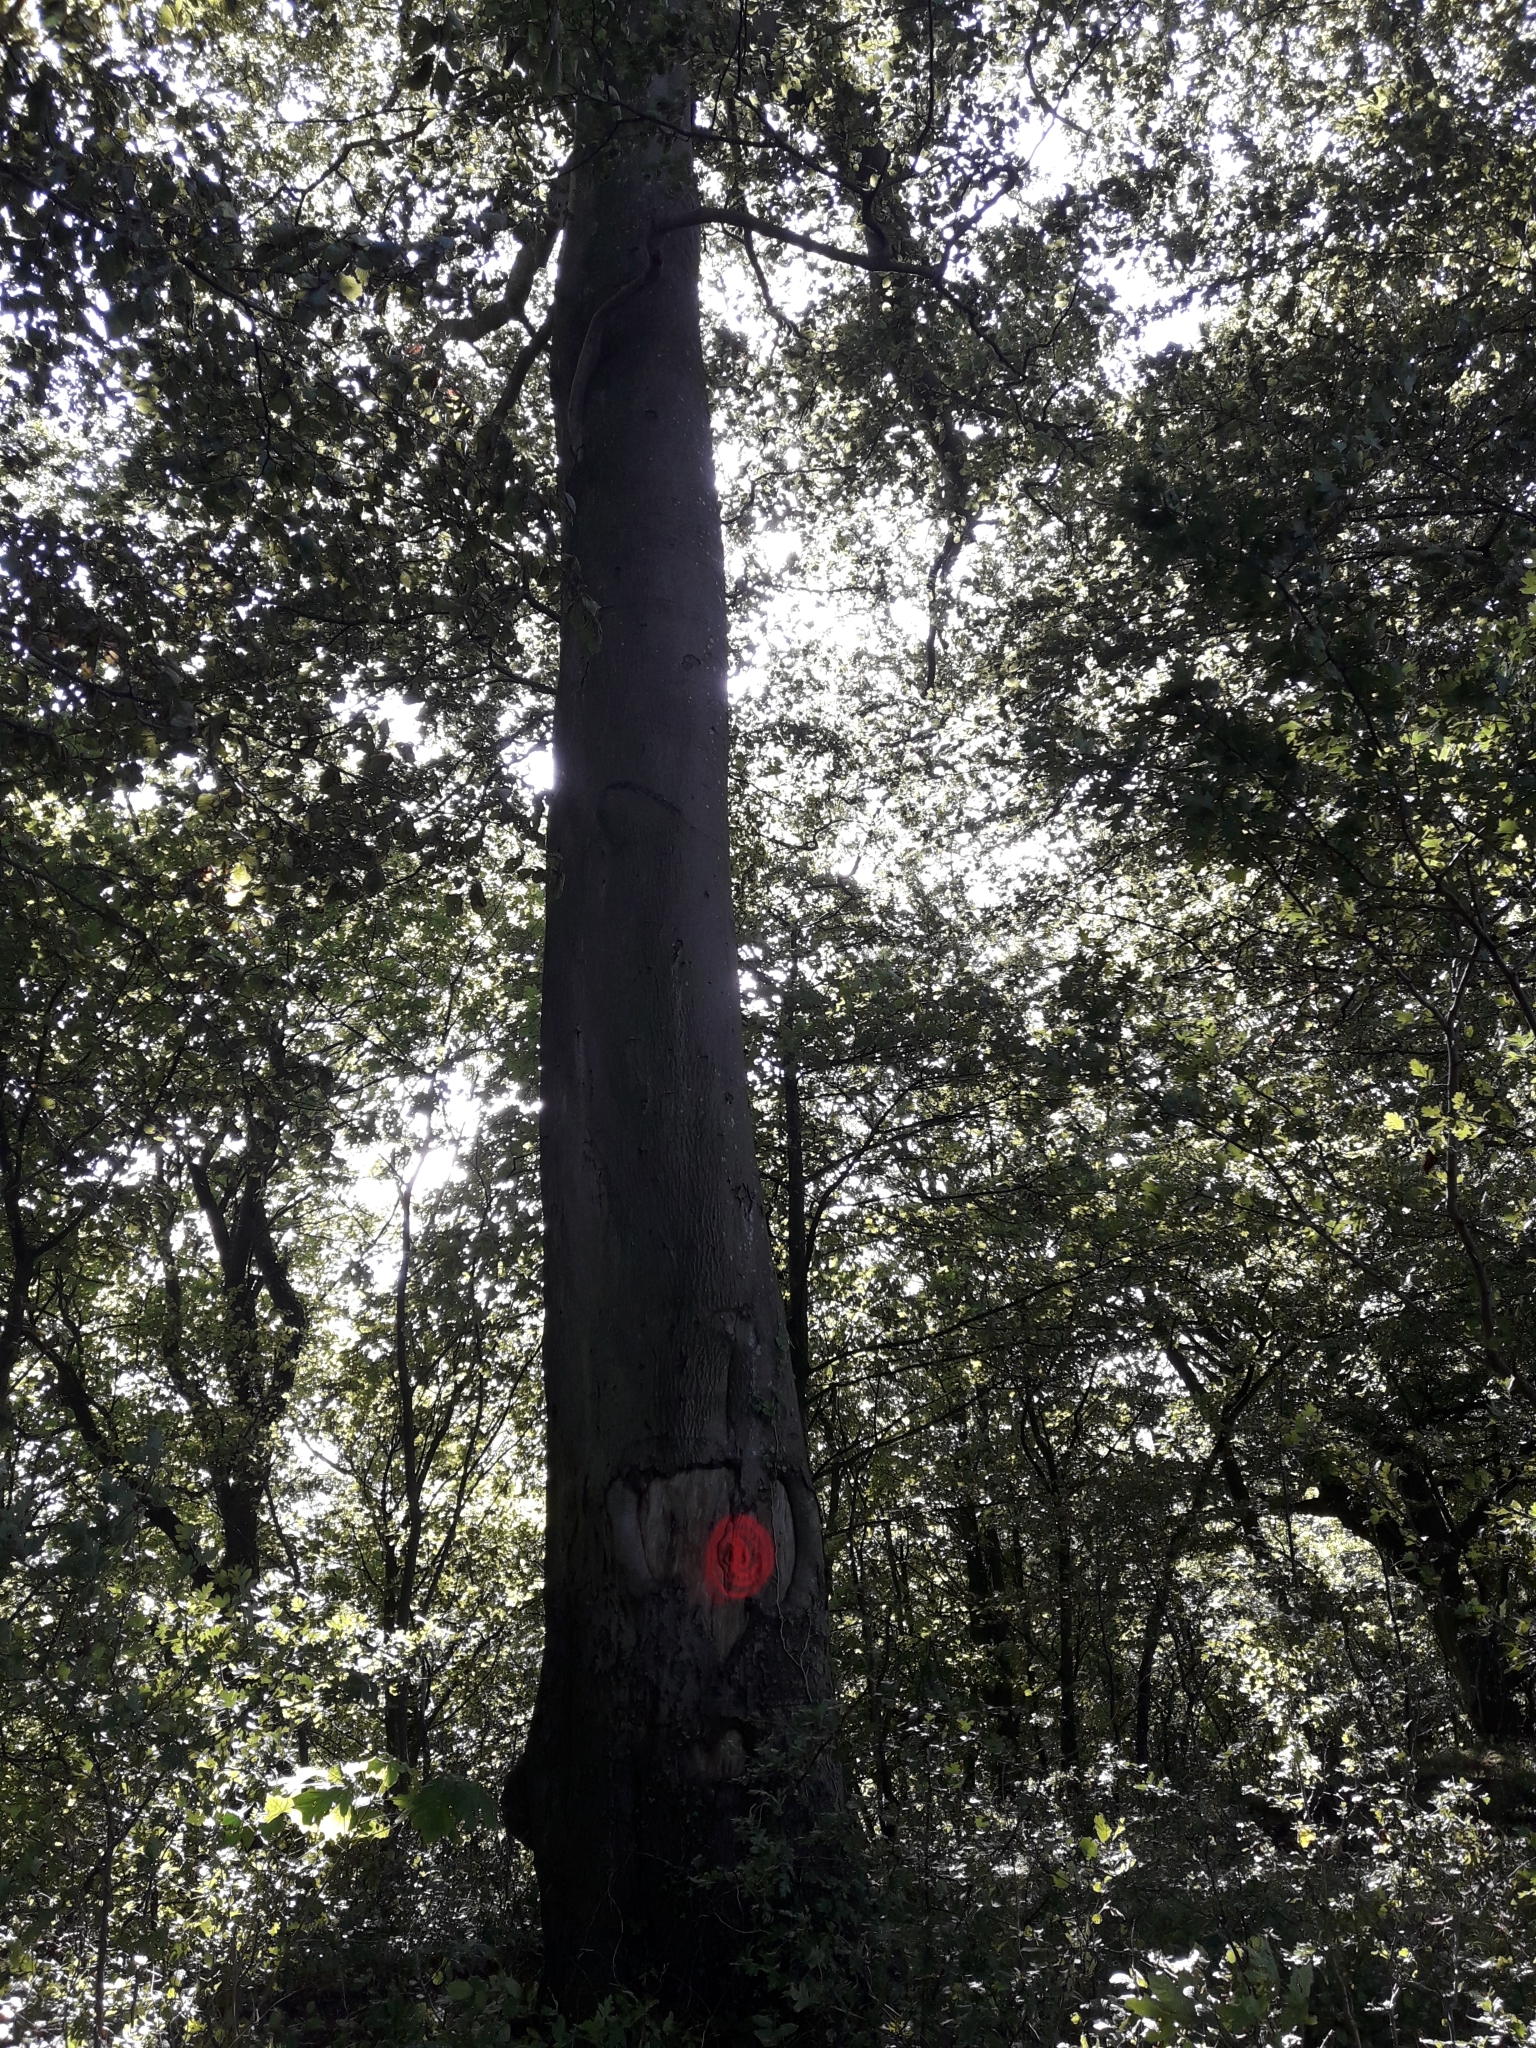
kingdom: Plantae
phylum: Tracheophyta
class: Magnoliopsida
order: Fagales
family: Fagaceae
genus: Fagus
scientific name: Fagus sylvatica
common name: Beech
